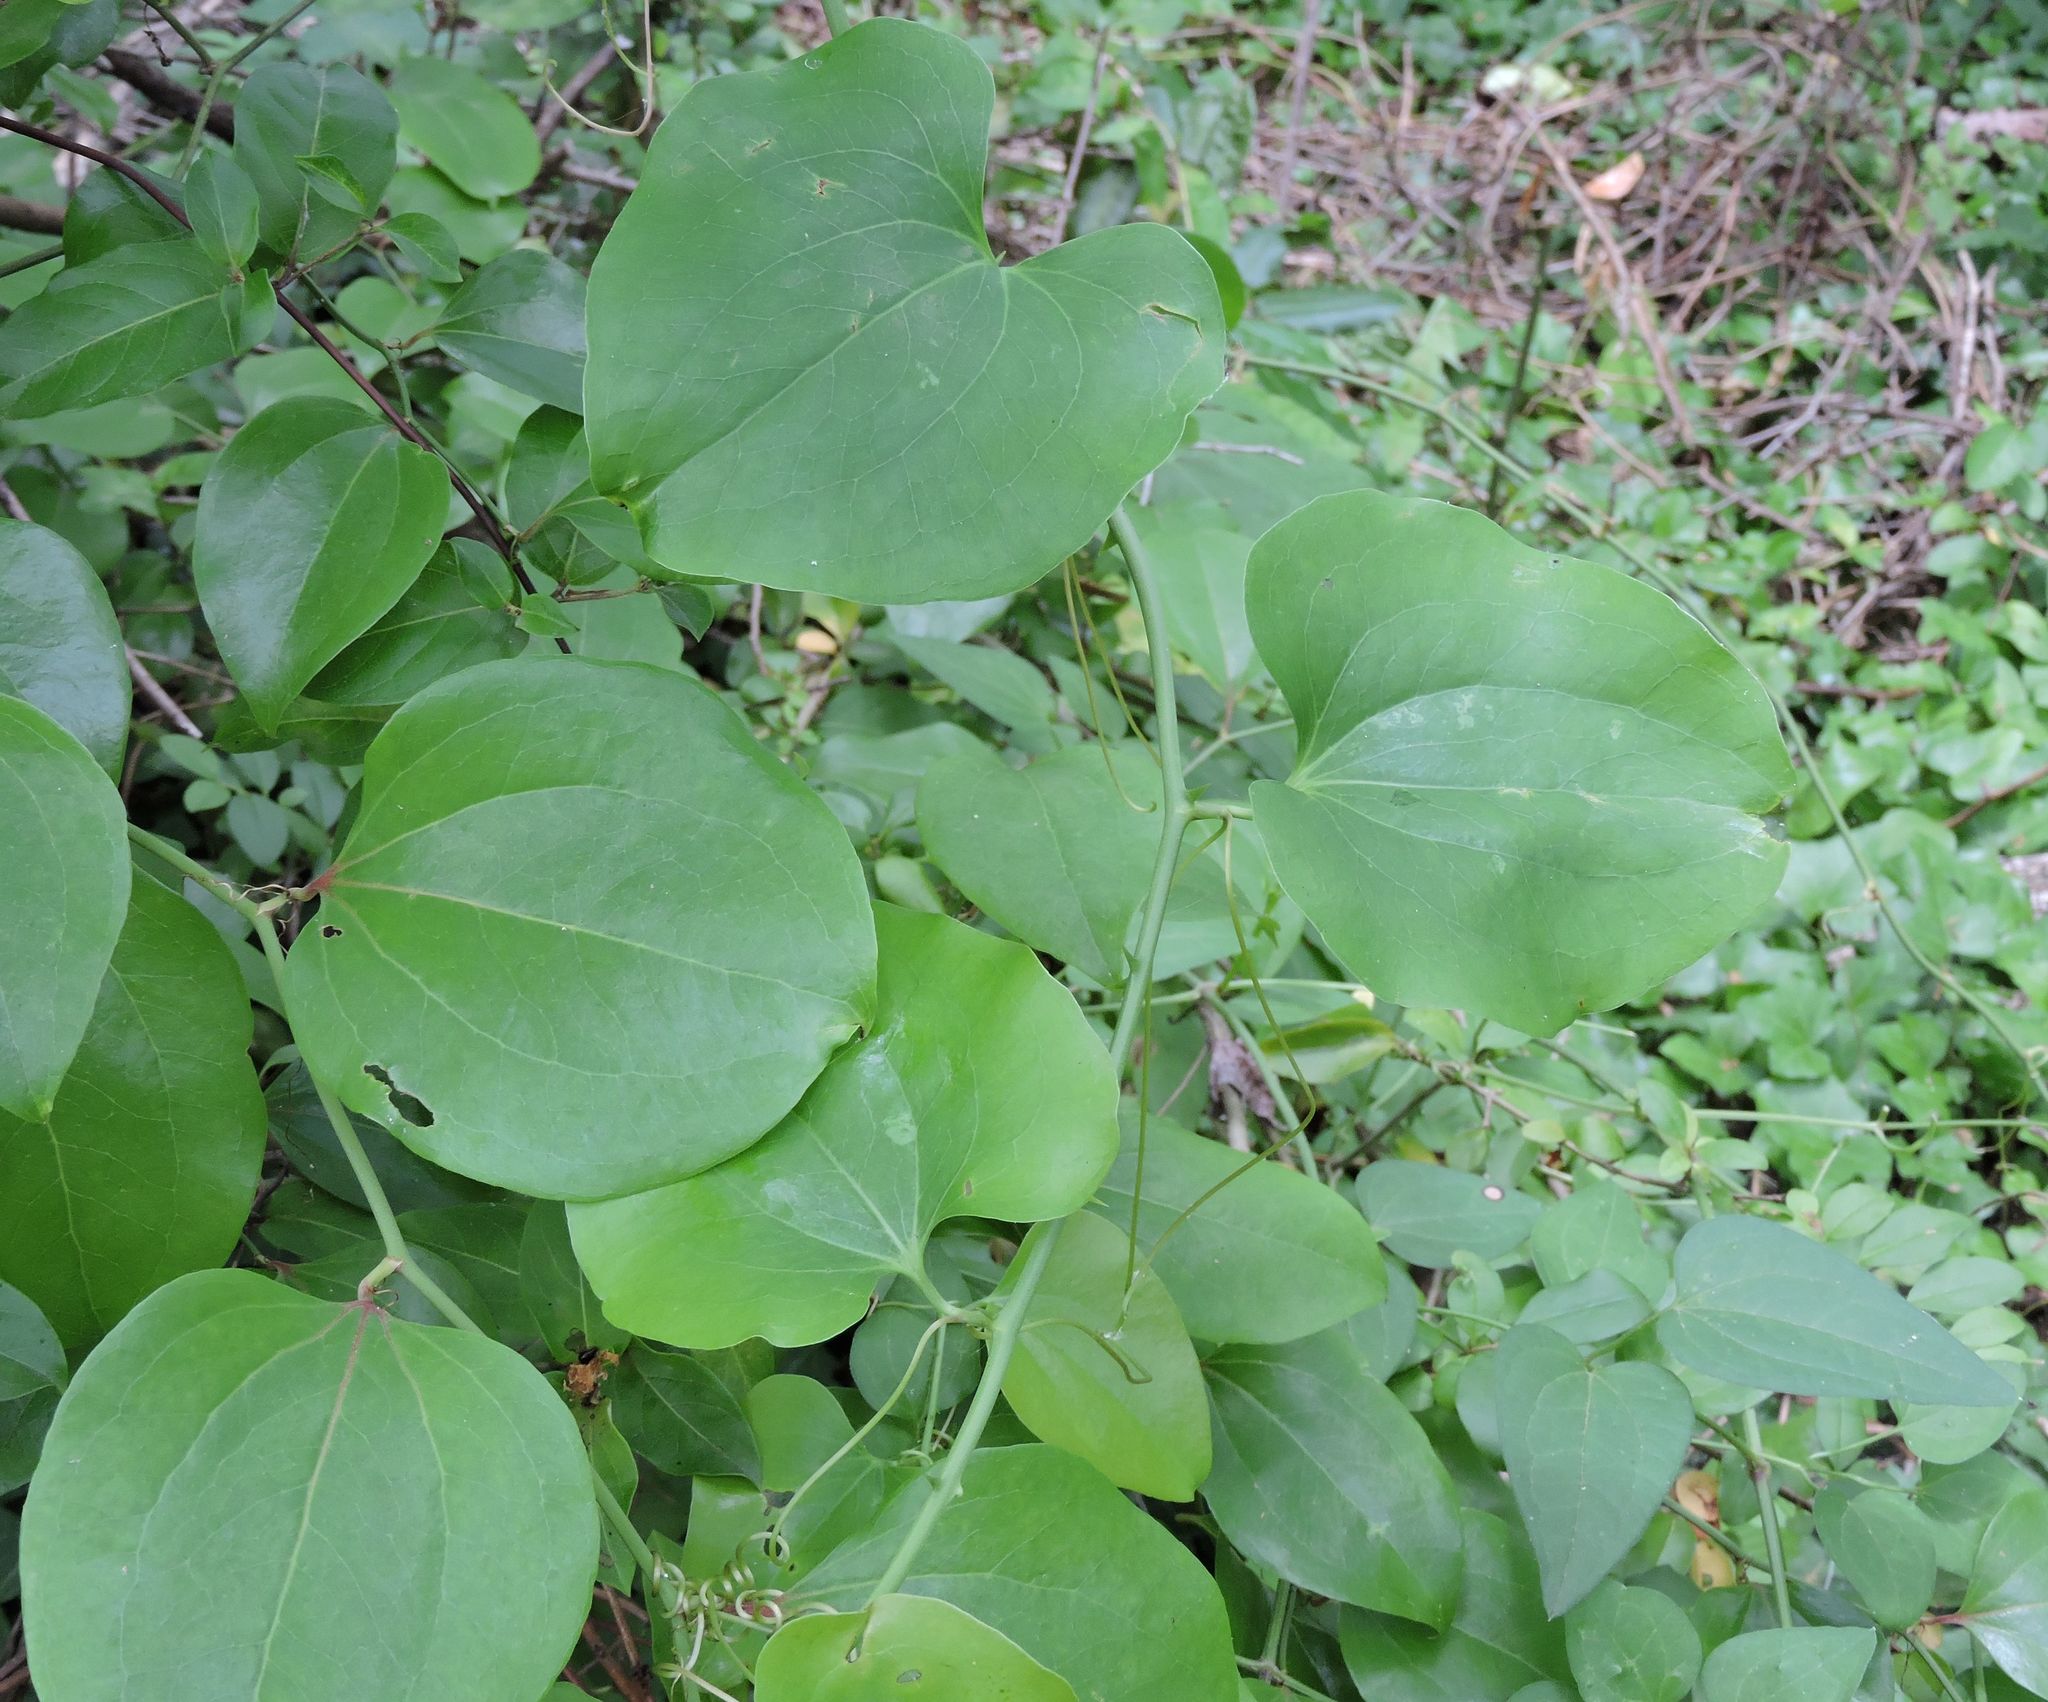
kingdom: Plantae
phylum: Tracheophyta
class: Liliopsida
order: Liliales
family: Smilacaceae
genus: Smilax
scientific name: Smilax rotundifolia
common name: Bullbriar
